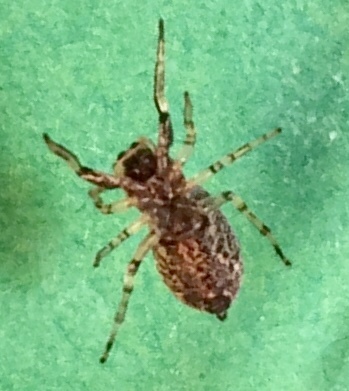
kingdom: Animalia
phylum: Arthropoda
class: Arachnida
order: Araneae
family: Salticidae
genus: Zygoballus
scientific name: Zygoballus rufipes
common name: Jumping spiders
